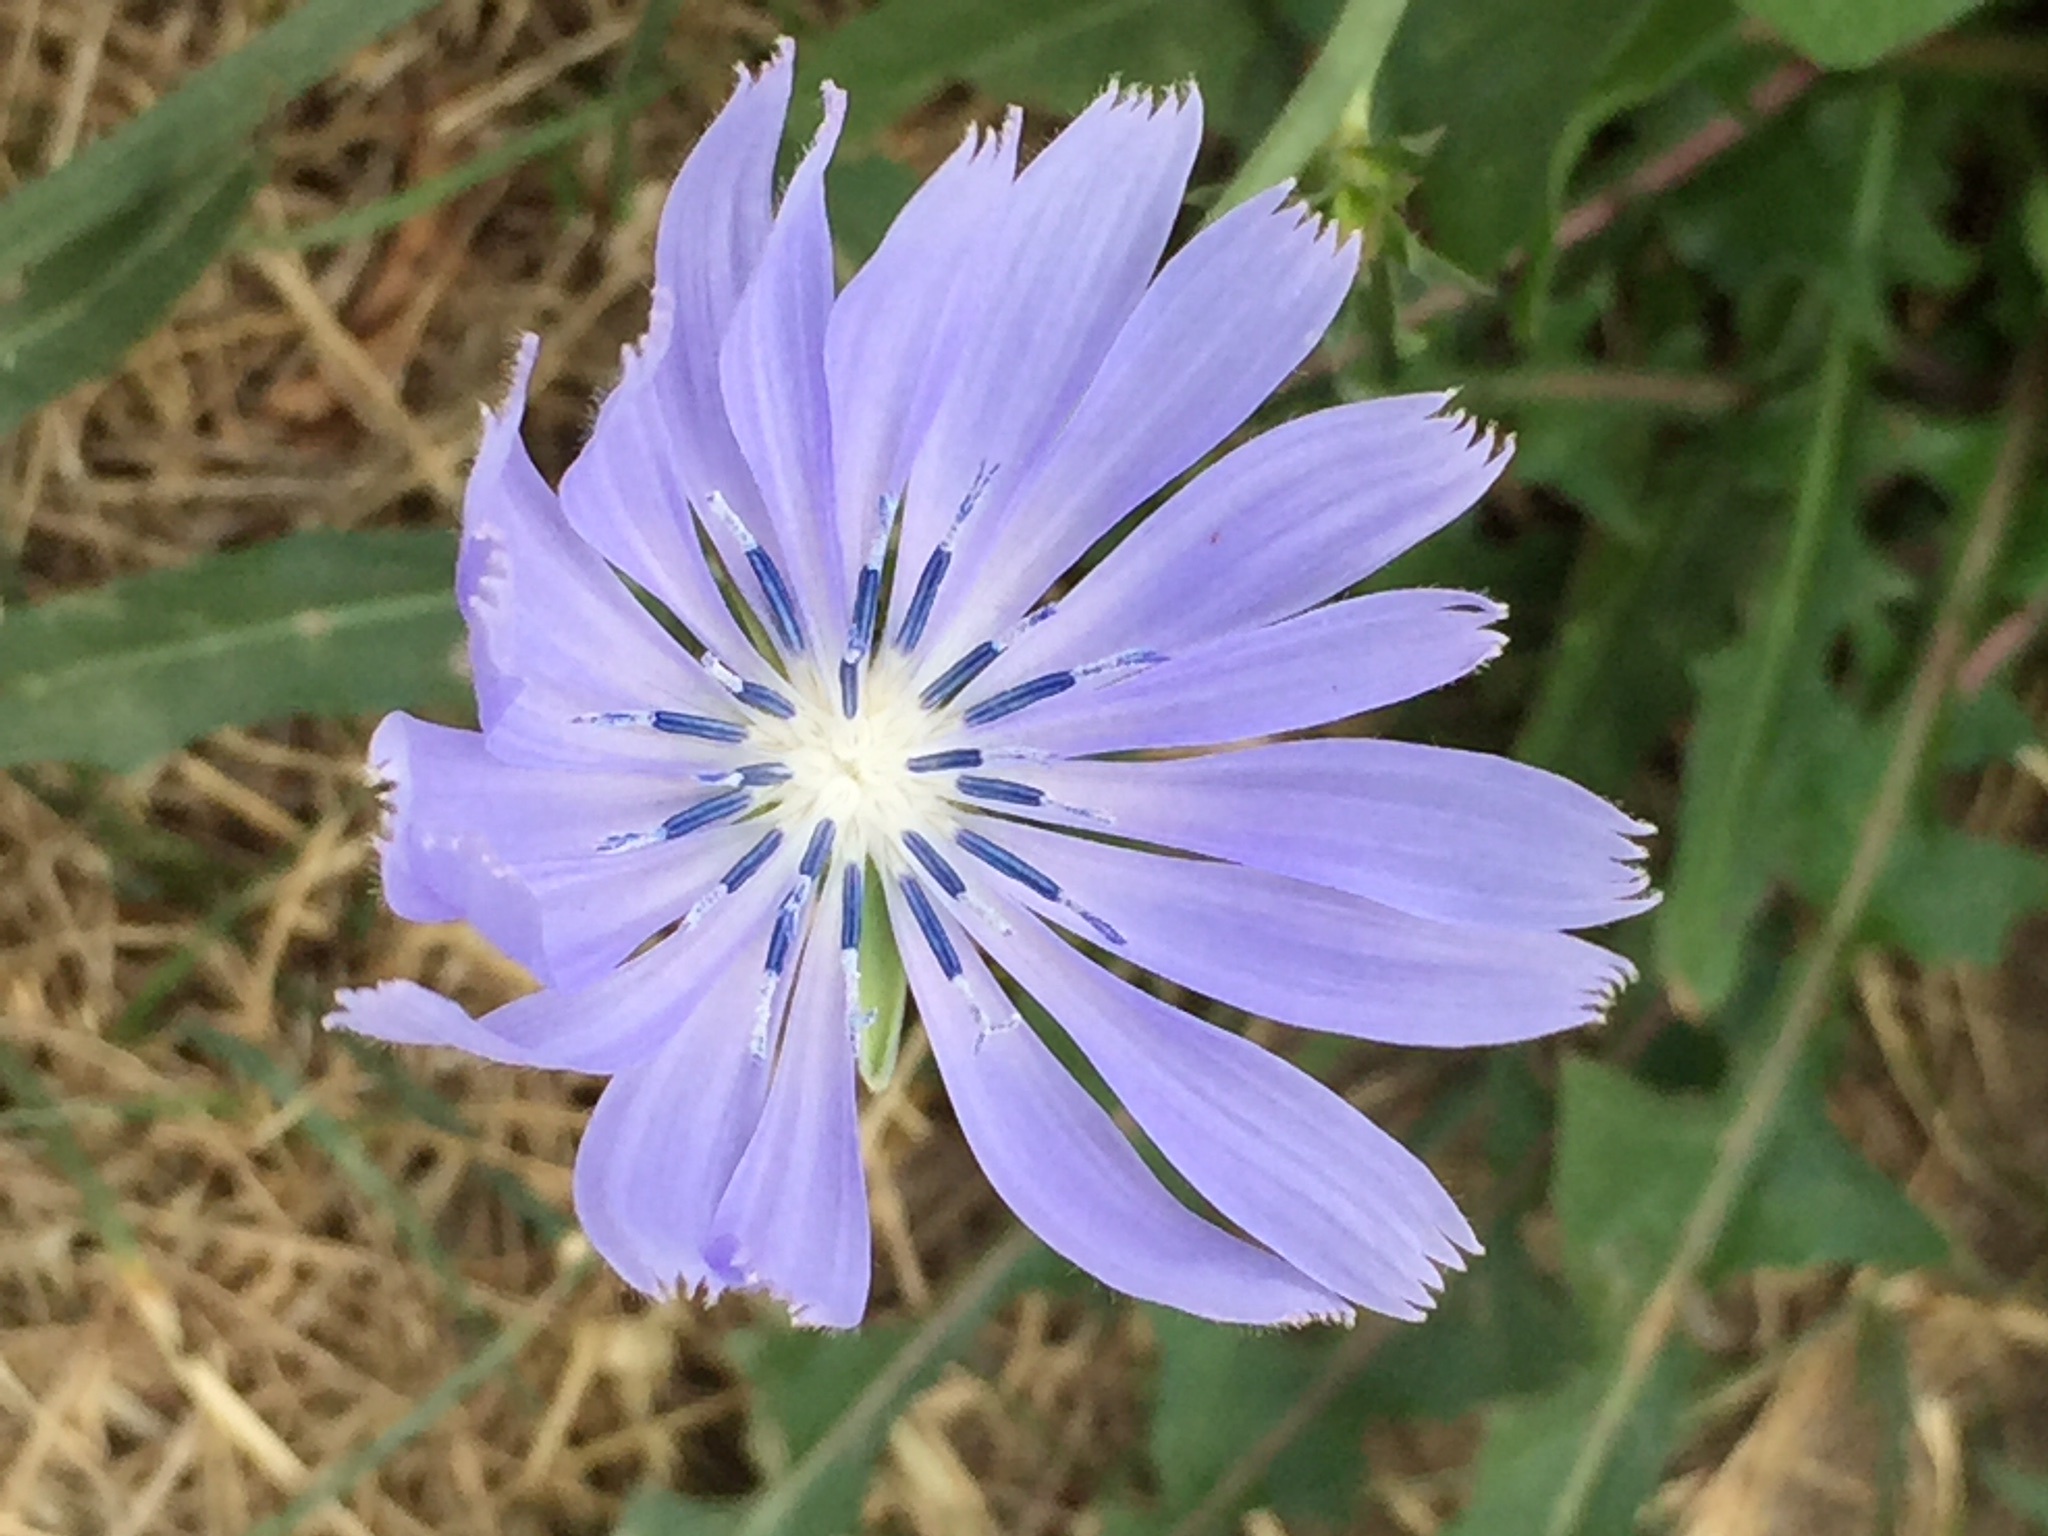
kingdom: Plantae
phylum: Tracheophyta
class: Magnoliopsida
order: Asterales
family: Asteraceae
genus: Cichorium
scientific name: Cichorium intybus
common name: Chicory
